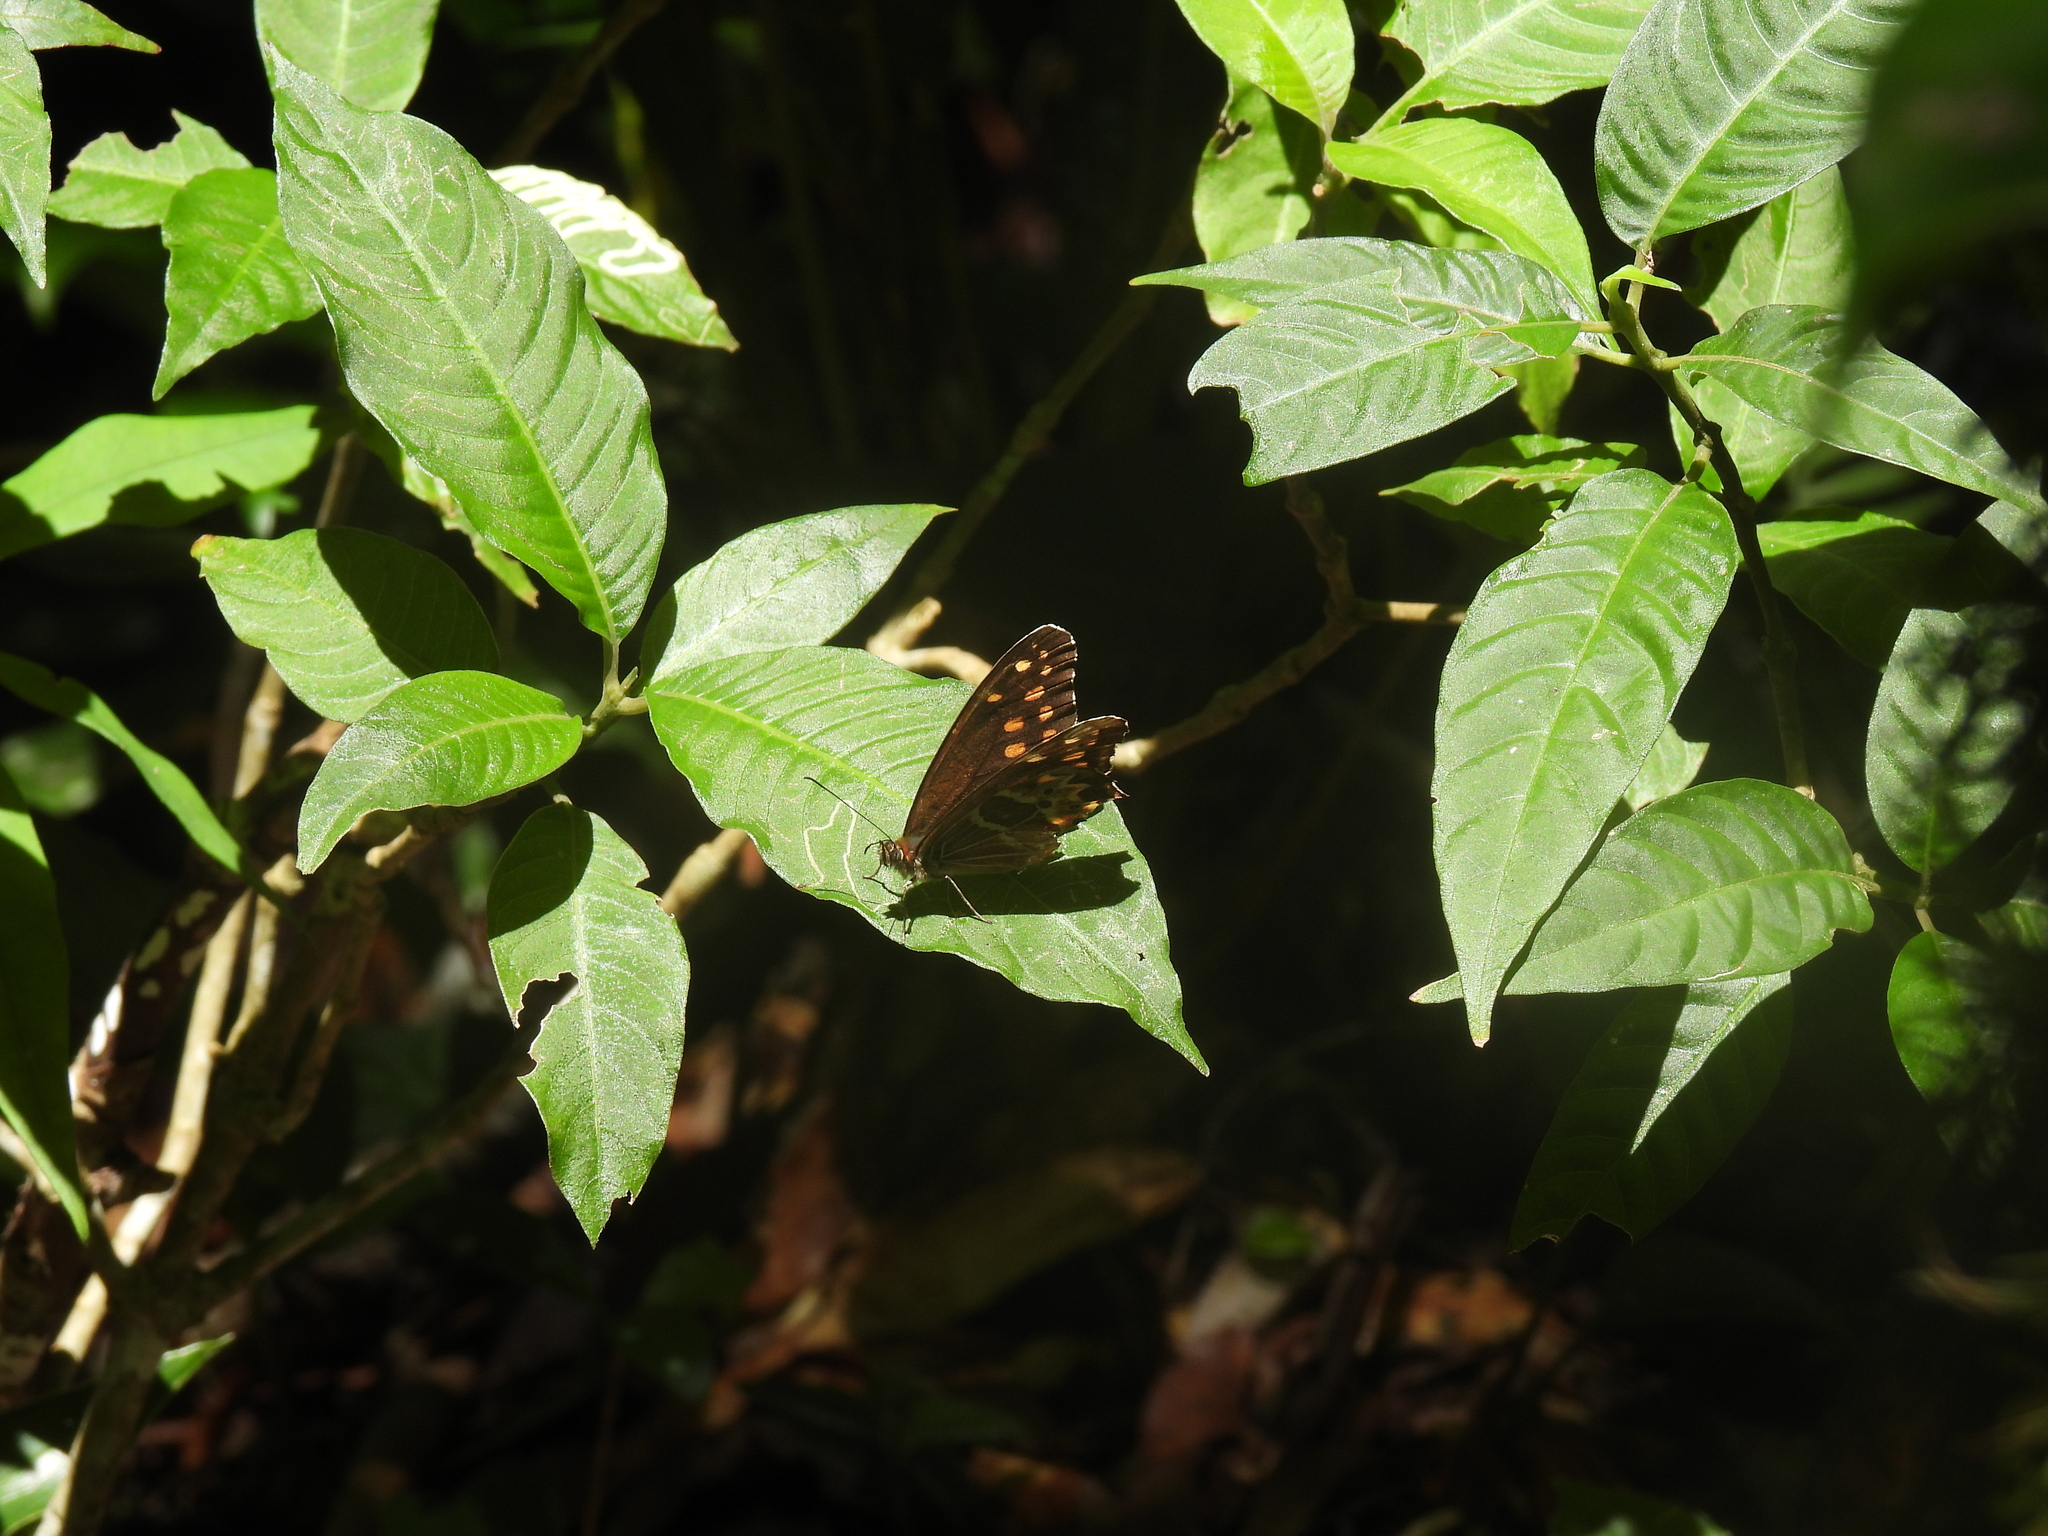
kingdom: Animalia
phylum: Arthropoda
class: Insecta
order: Lepidoptera
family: Nymphalidae
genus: Oxeoschistus
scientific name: Oxeoschistus hilara
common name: Dot-banded satyr
